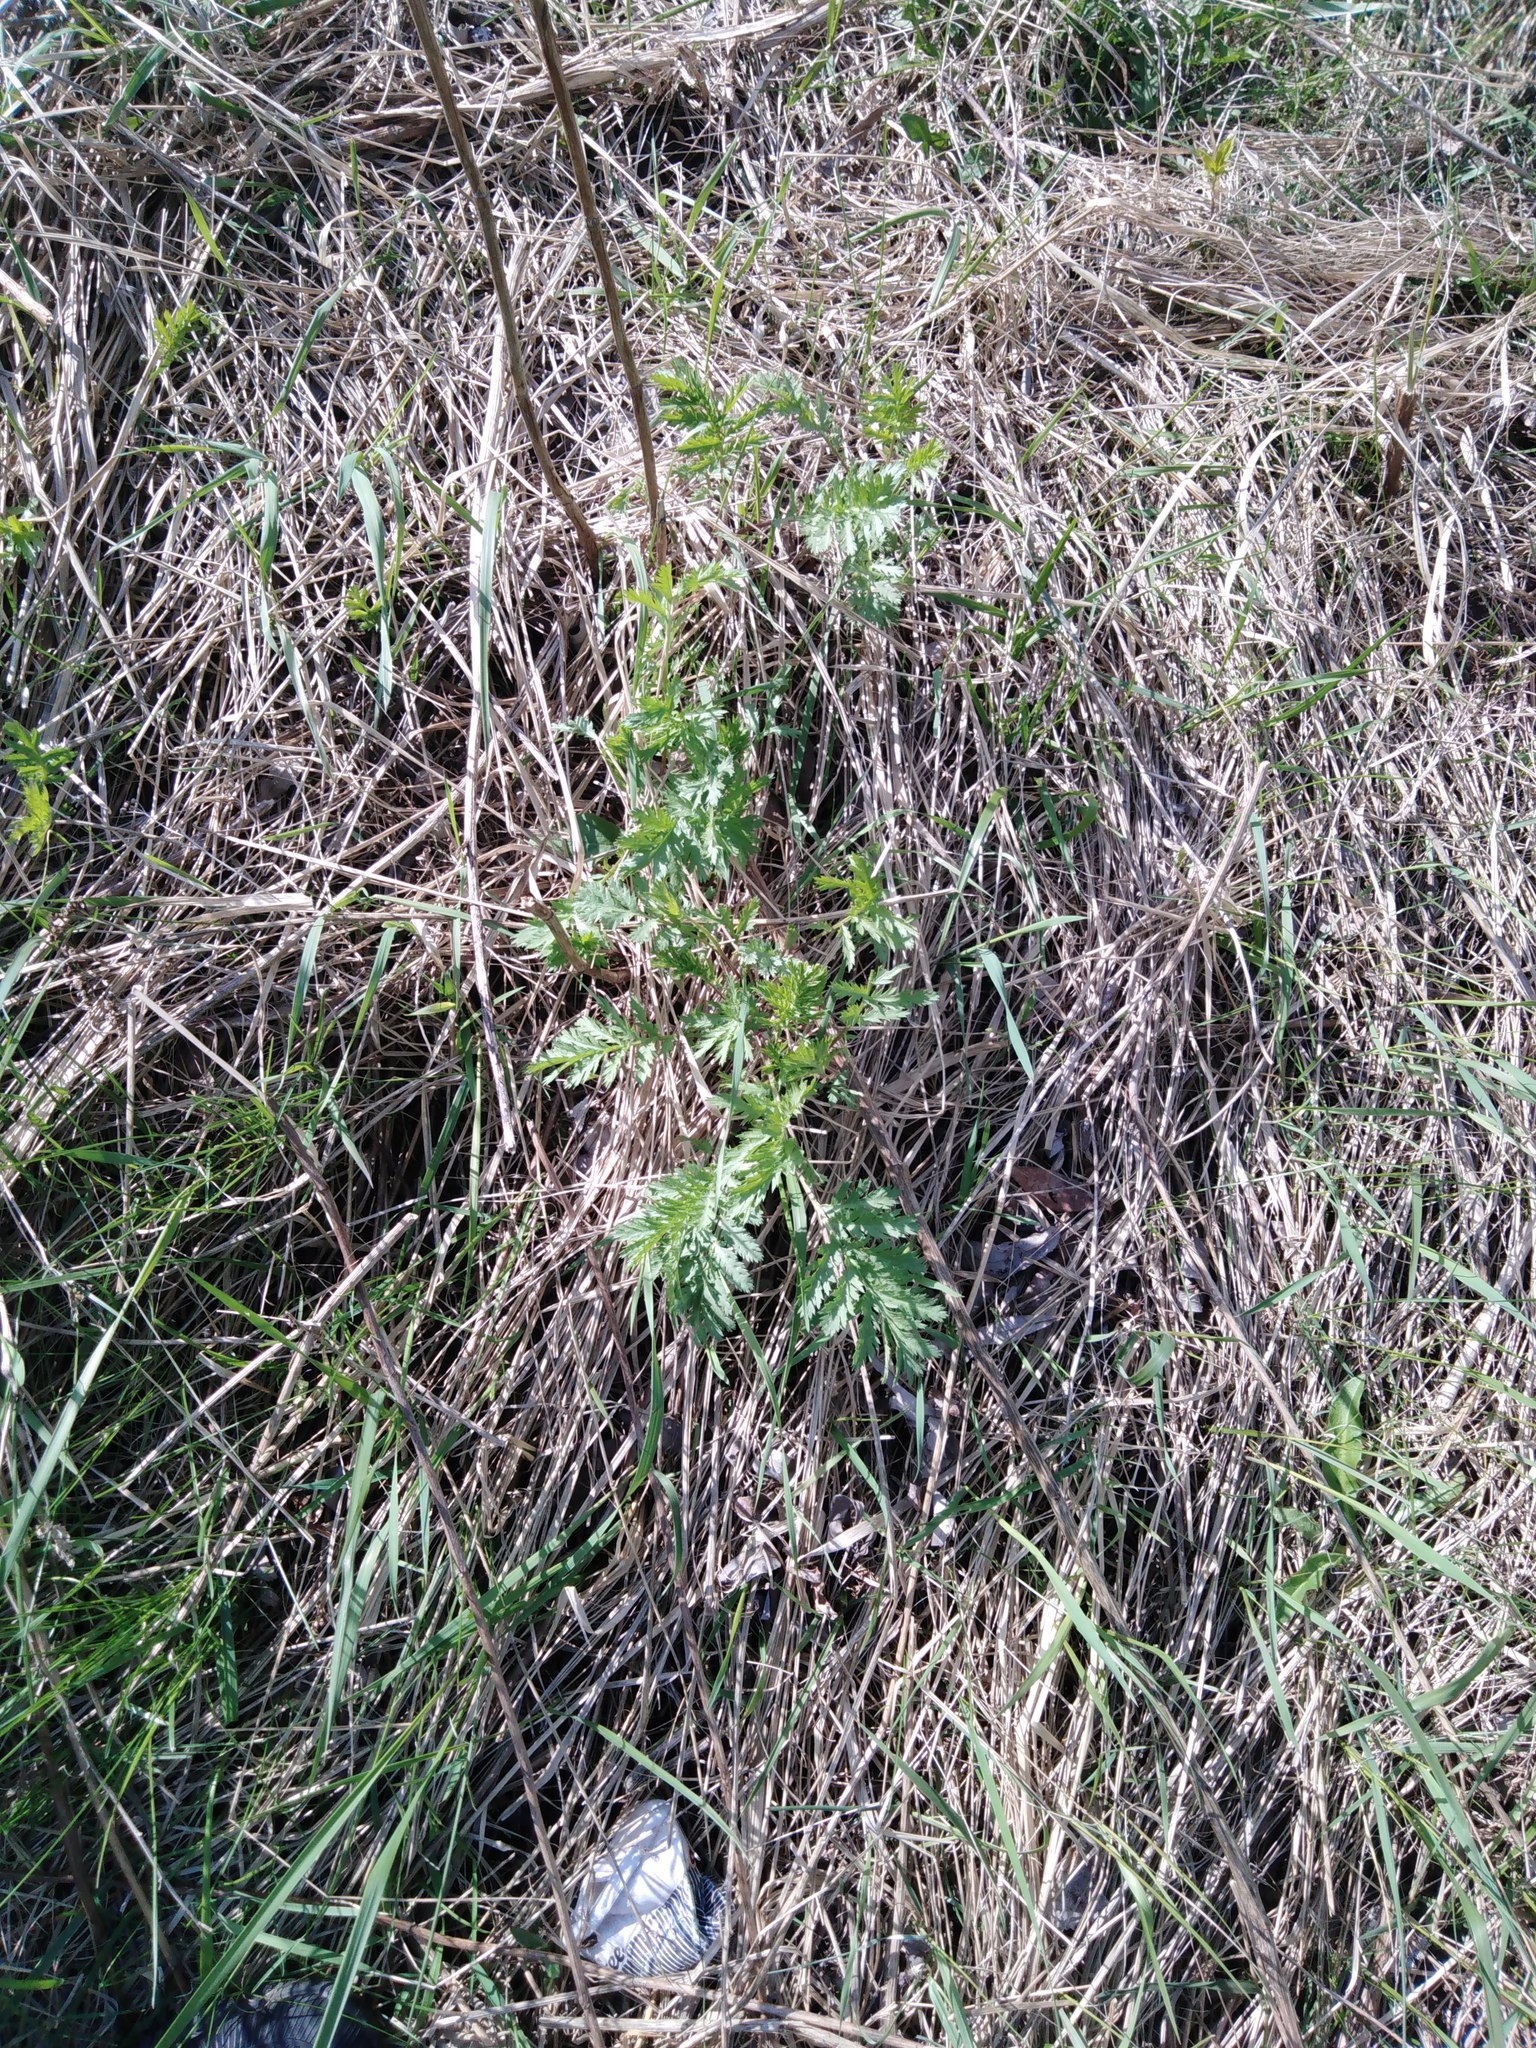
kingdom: Plantae
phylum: Tracheophyta
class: Magnoliopsida
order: Asterales
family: Asteraceae
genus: Tanacetum
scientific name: Tanacetum vulgare
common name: Common tansy
